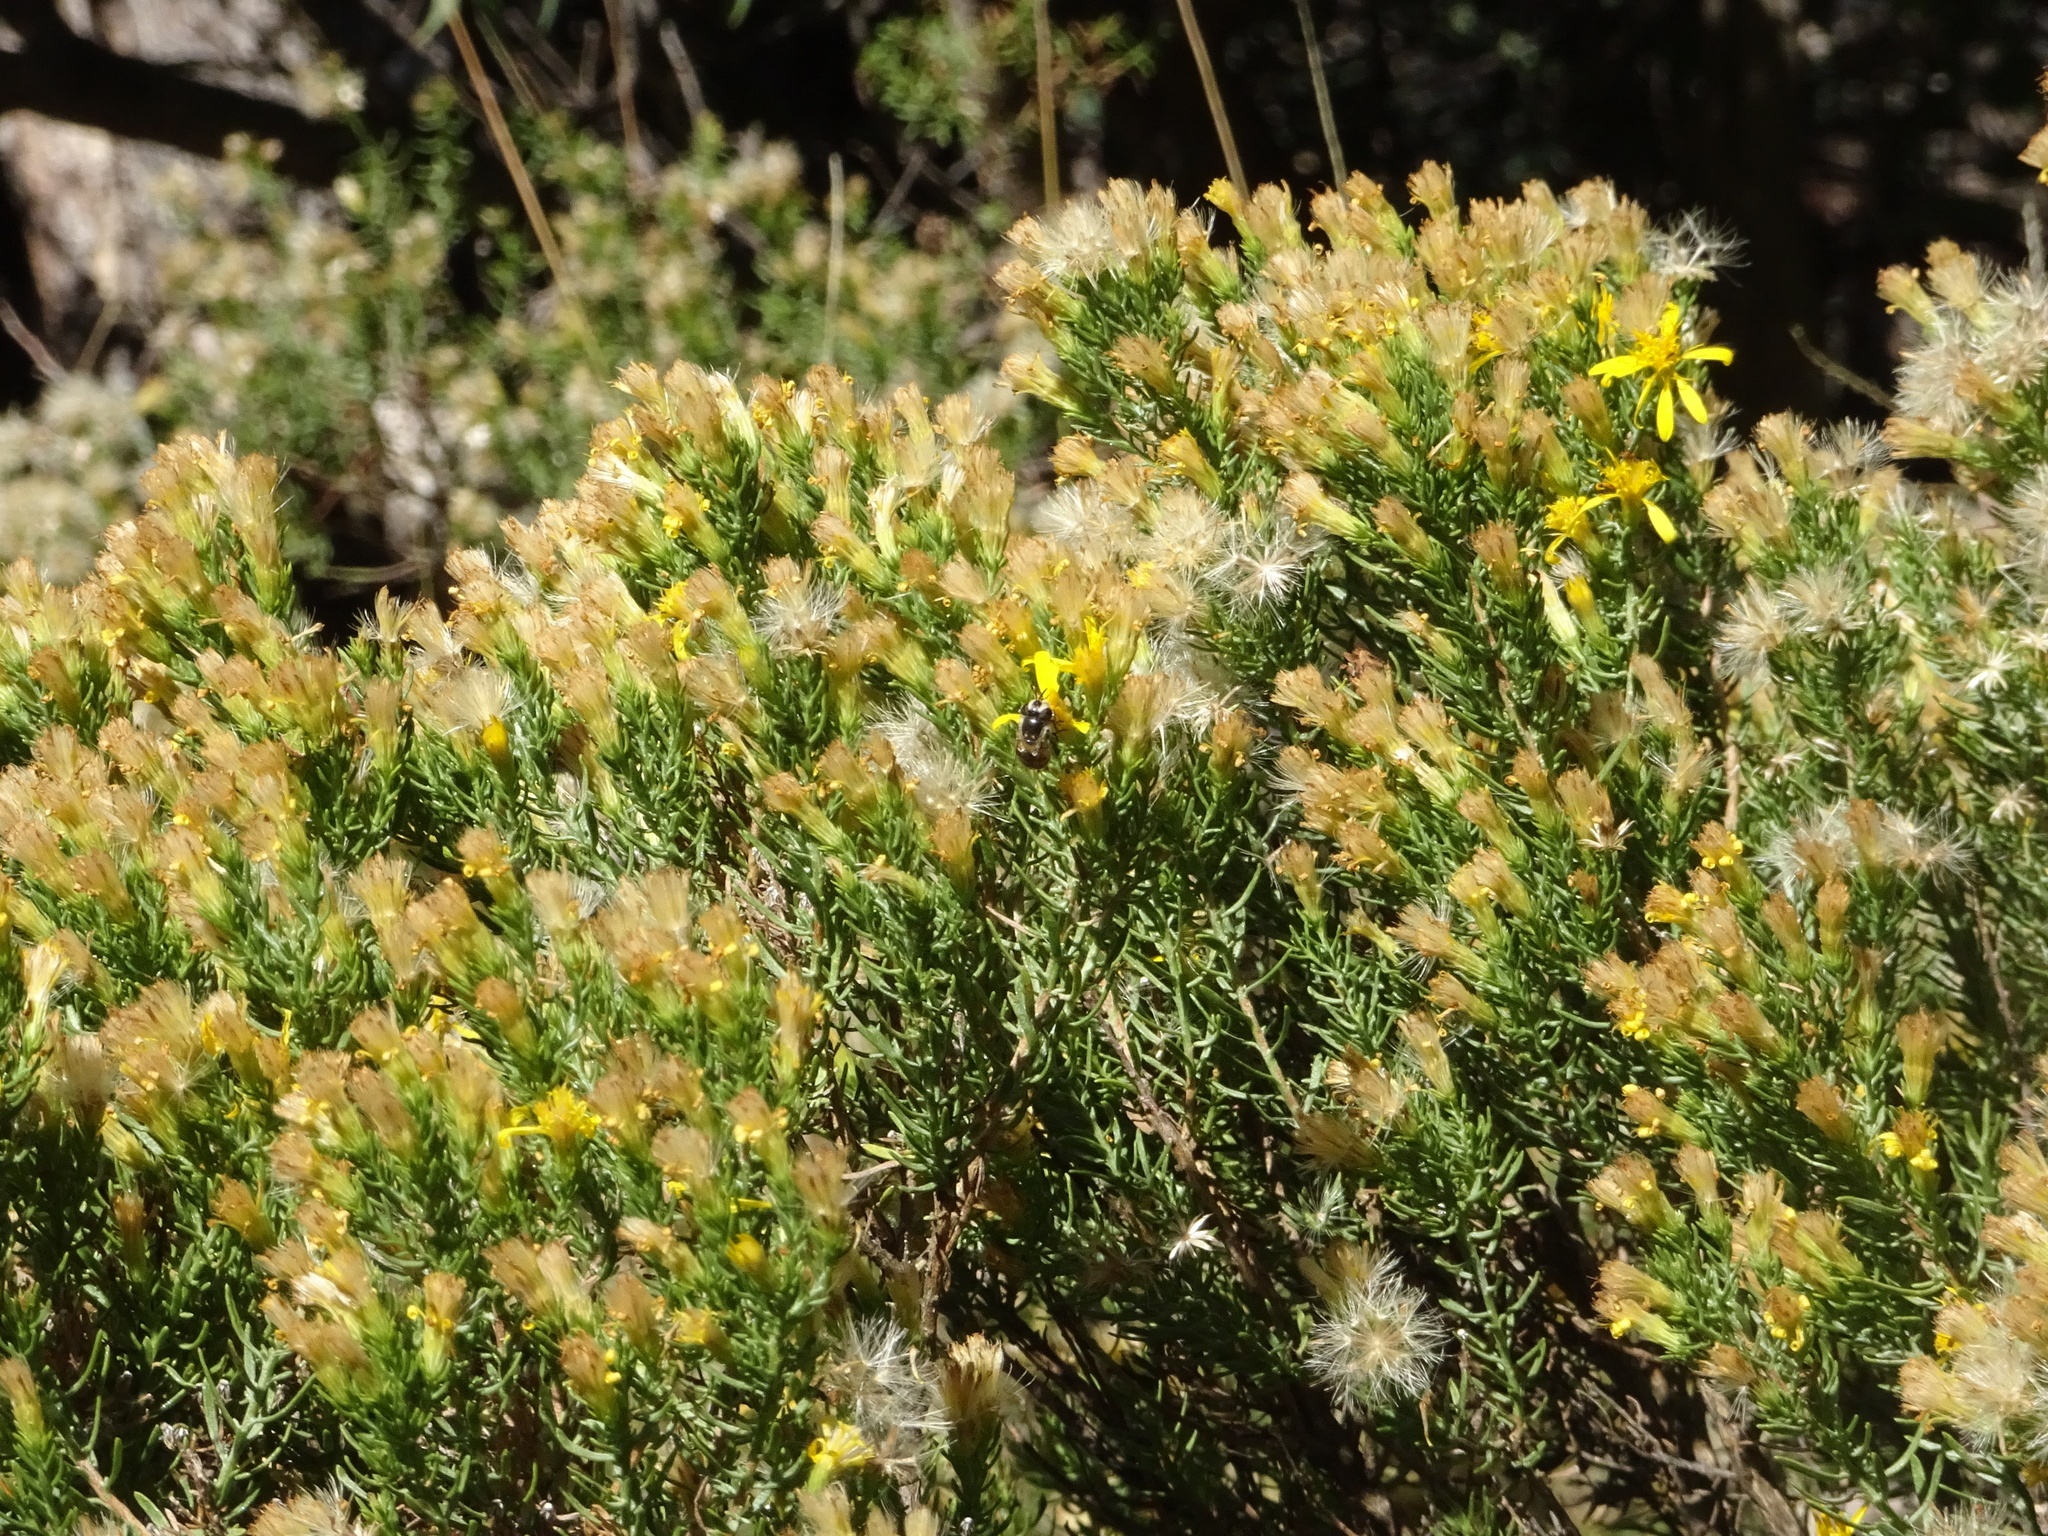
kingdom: Animalia
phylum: Arthropoda
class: Insecta
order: Hymenoptera
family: Apidae
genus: Apis
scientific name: Apis mellifera
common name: Honey bee
